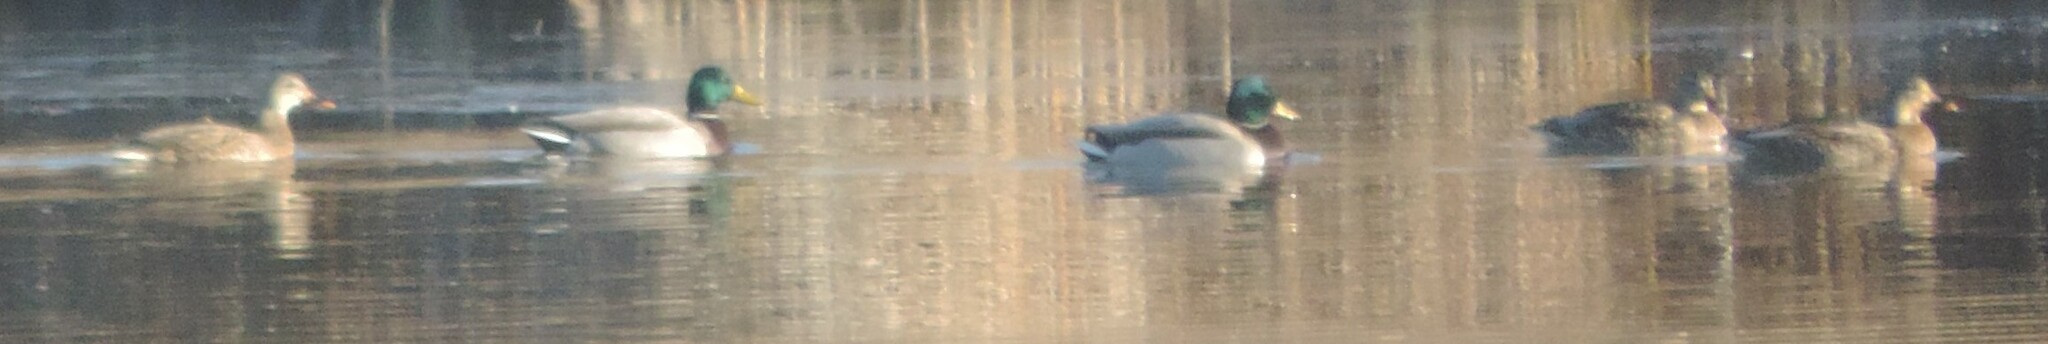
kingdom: Animalia
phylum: Chordata
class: Aves
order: Anseriformes
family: Anatidae
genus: Anas
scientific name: Anas platyrhynchos
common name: Mallard
